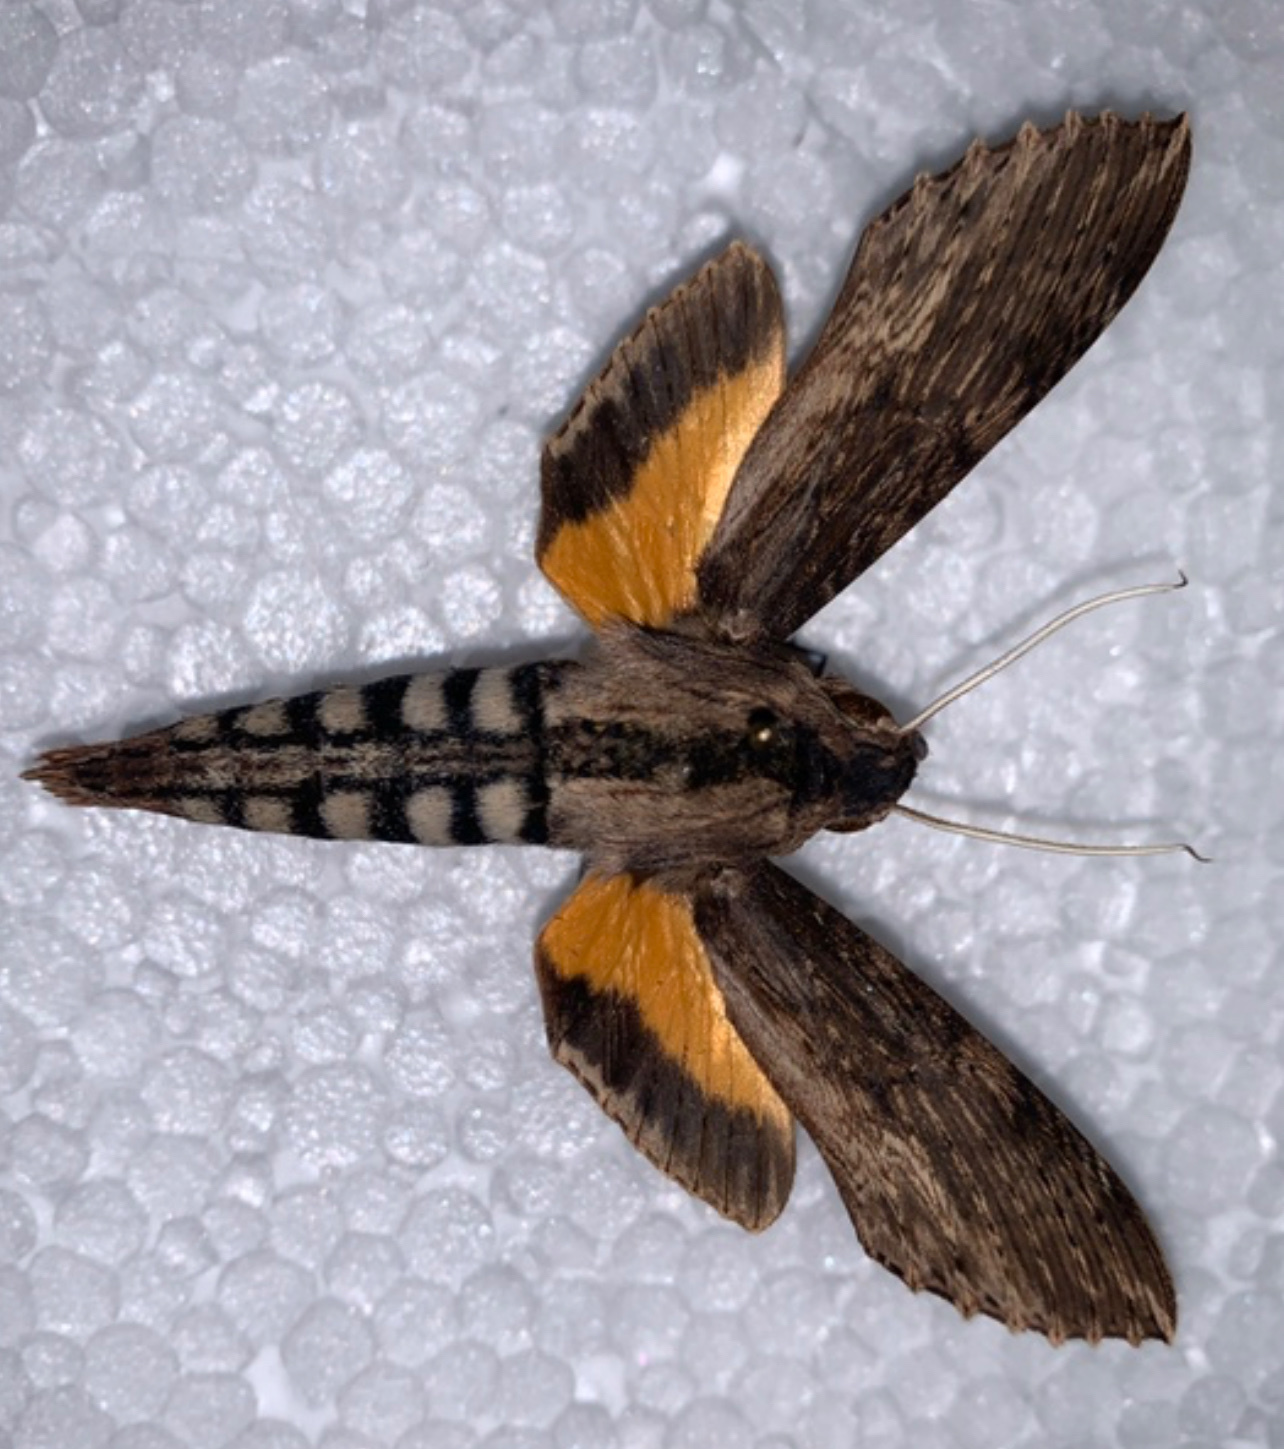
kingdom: Animalia
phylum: Arthropoda
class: Insecta
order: Lepidoptera
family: Sphingidae
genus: Erinnyis
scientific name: Erinnyis alope
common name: Alope sphinx
